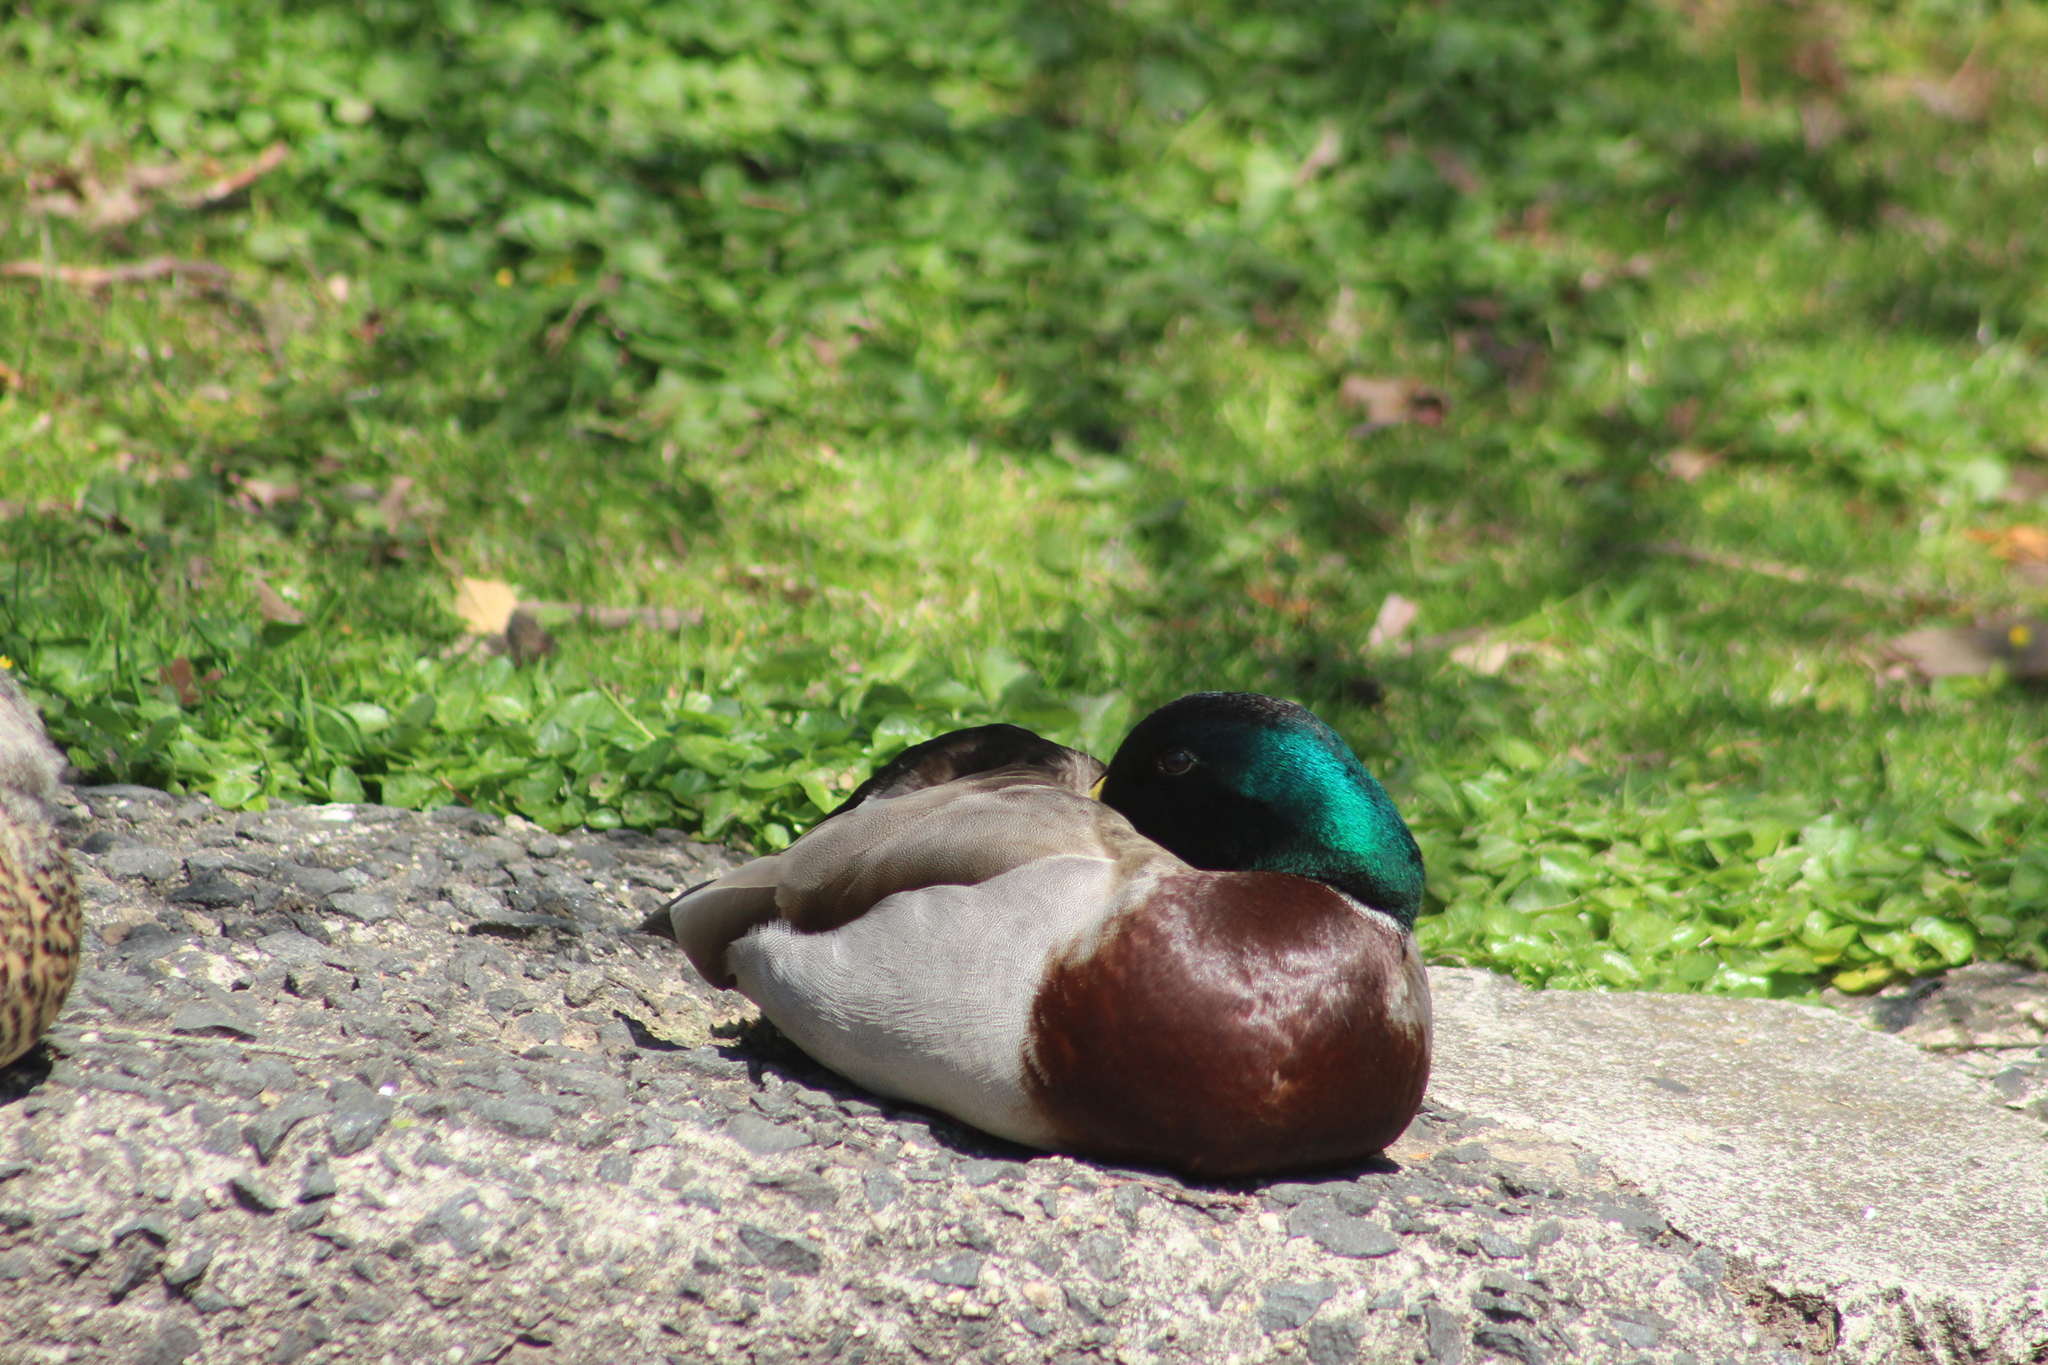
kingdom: Animalia
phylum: Chordata
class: Aves
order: Anseriformes
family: Anatidae
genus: Anas
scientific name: Anas platyrhynchos
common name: Mallard
